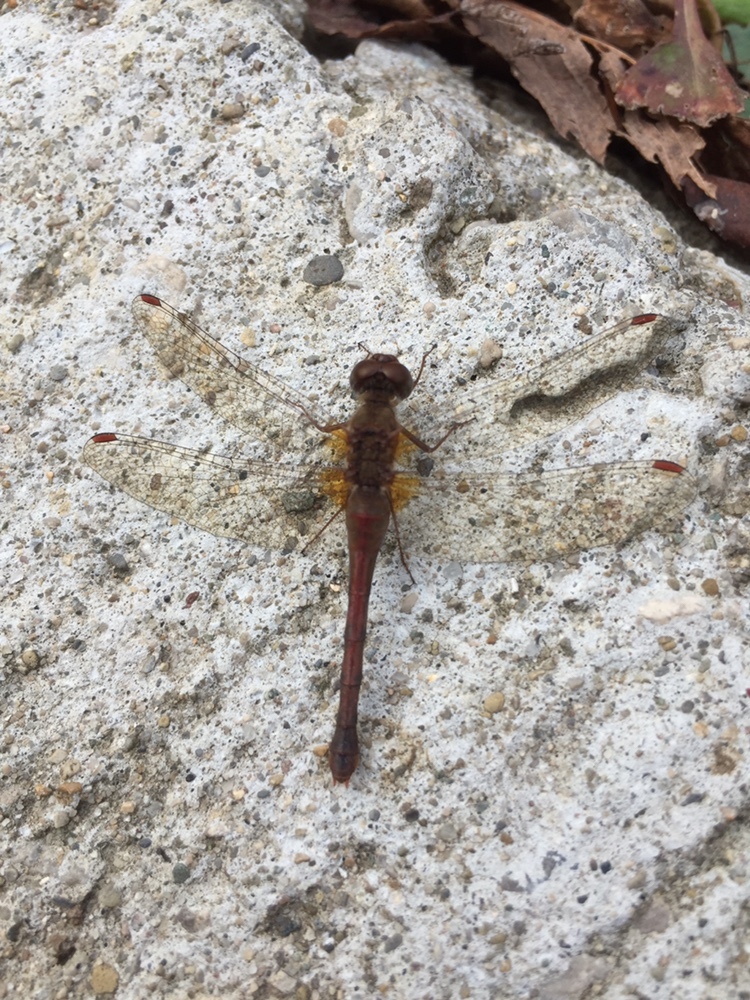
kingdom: Animalia
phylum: Arthropoda
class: Insecta
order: Odonata
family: Libellulidae
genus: Sympetrum
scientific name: Sympetrum vicinum
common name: Autumn meadowhawk
